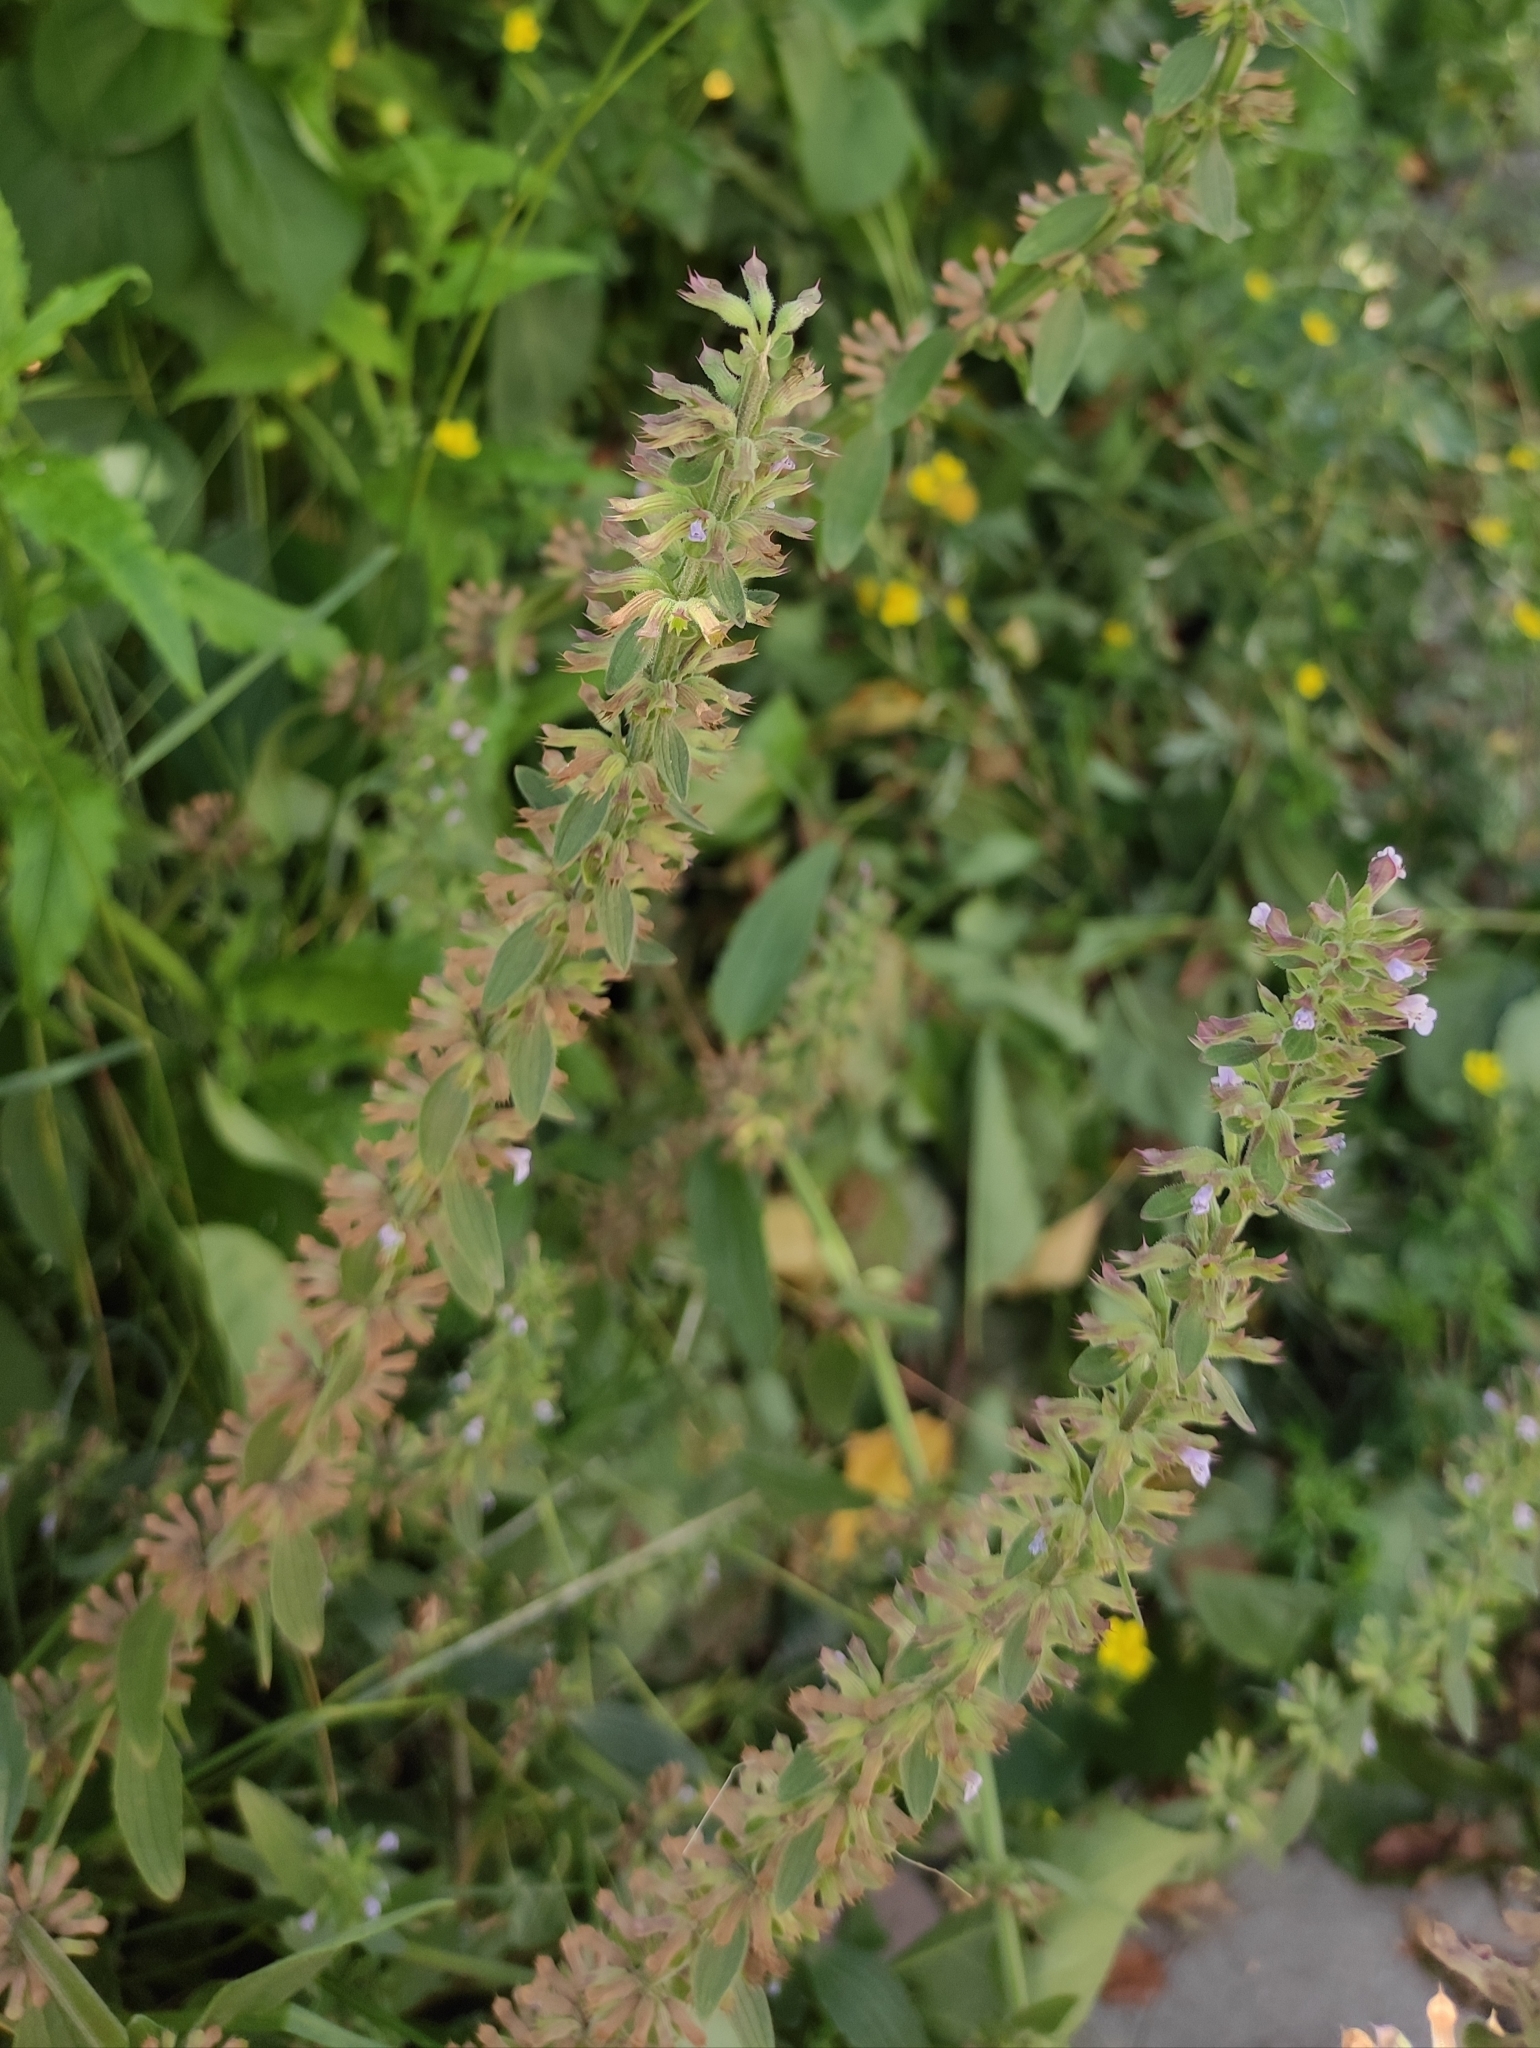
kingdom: Plantae
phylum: Tracheophyta
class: Magnoliopsida
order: Lamiales
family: Lamiaceae
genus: Dracocephalum
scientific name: Dracocephalum thymiflorum
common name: Thymeleaf dragonhead
